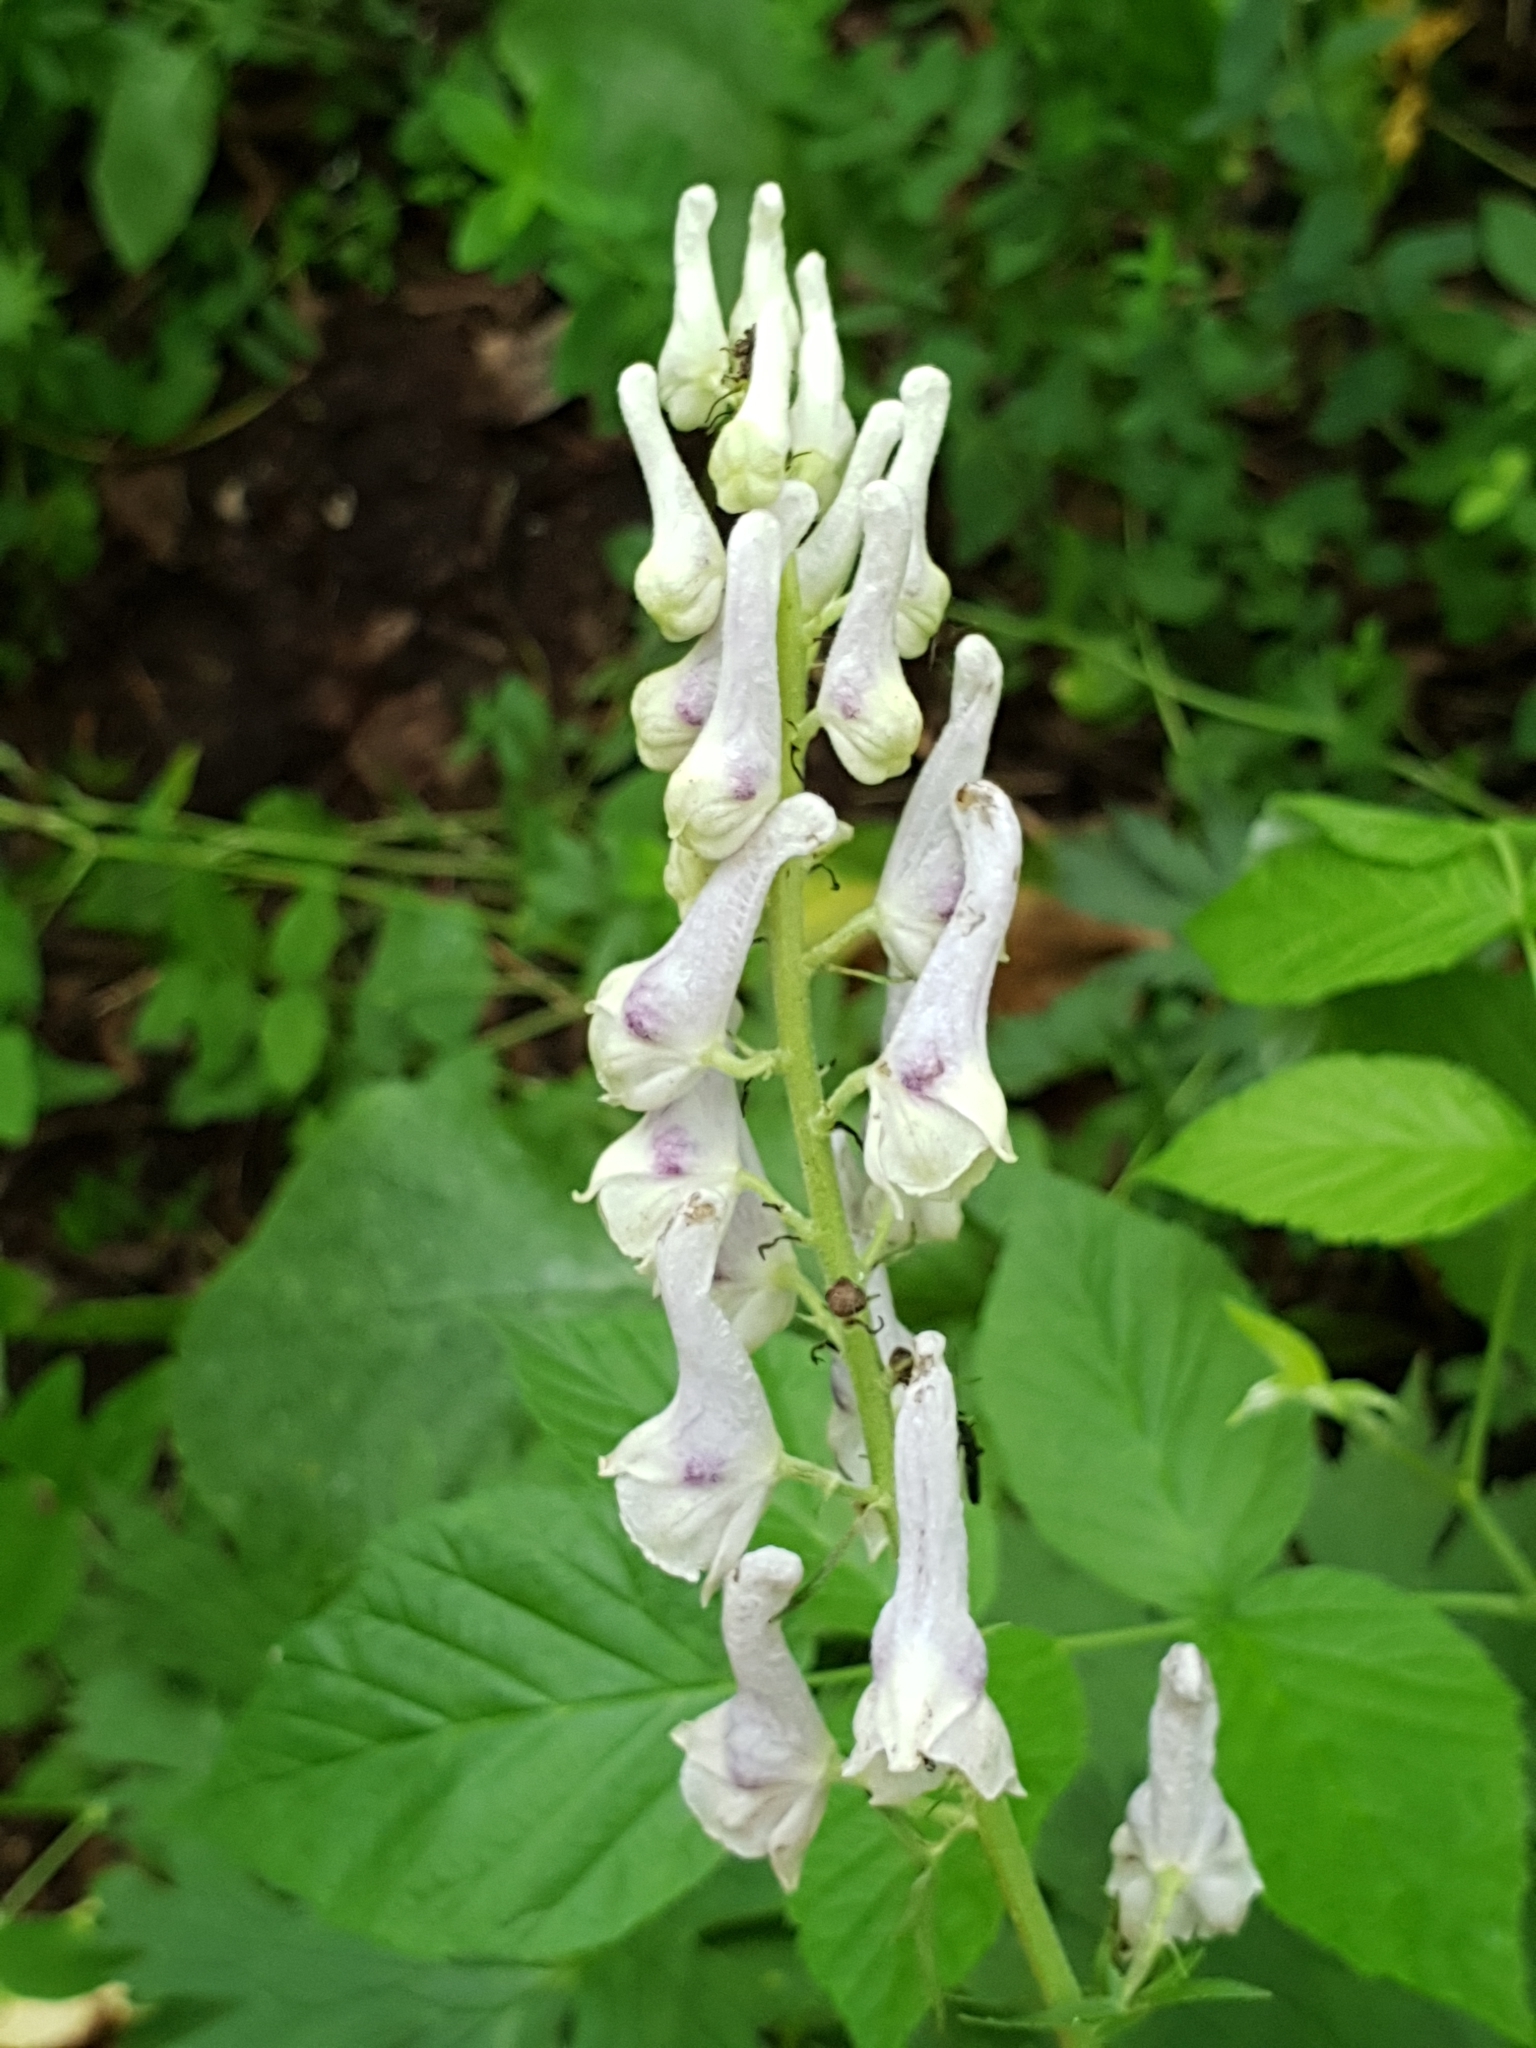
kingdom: Plantae
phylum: Tracheophyta
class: Magnoliopsida
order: Ranunculales
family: Ranunculaceae
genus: Aconitum
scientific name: Aconitum orientale
